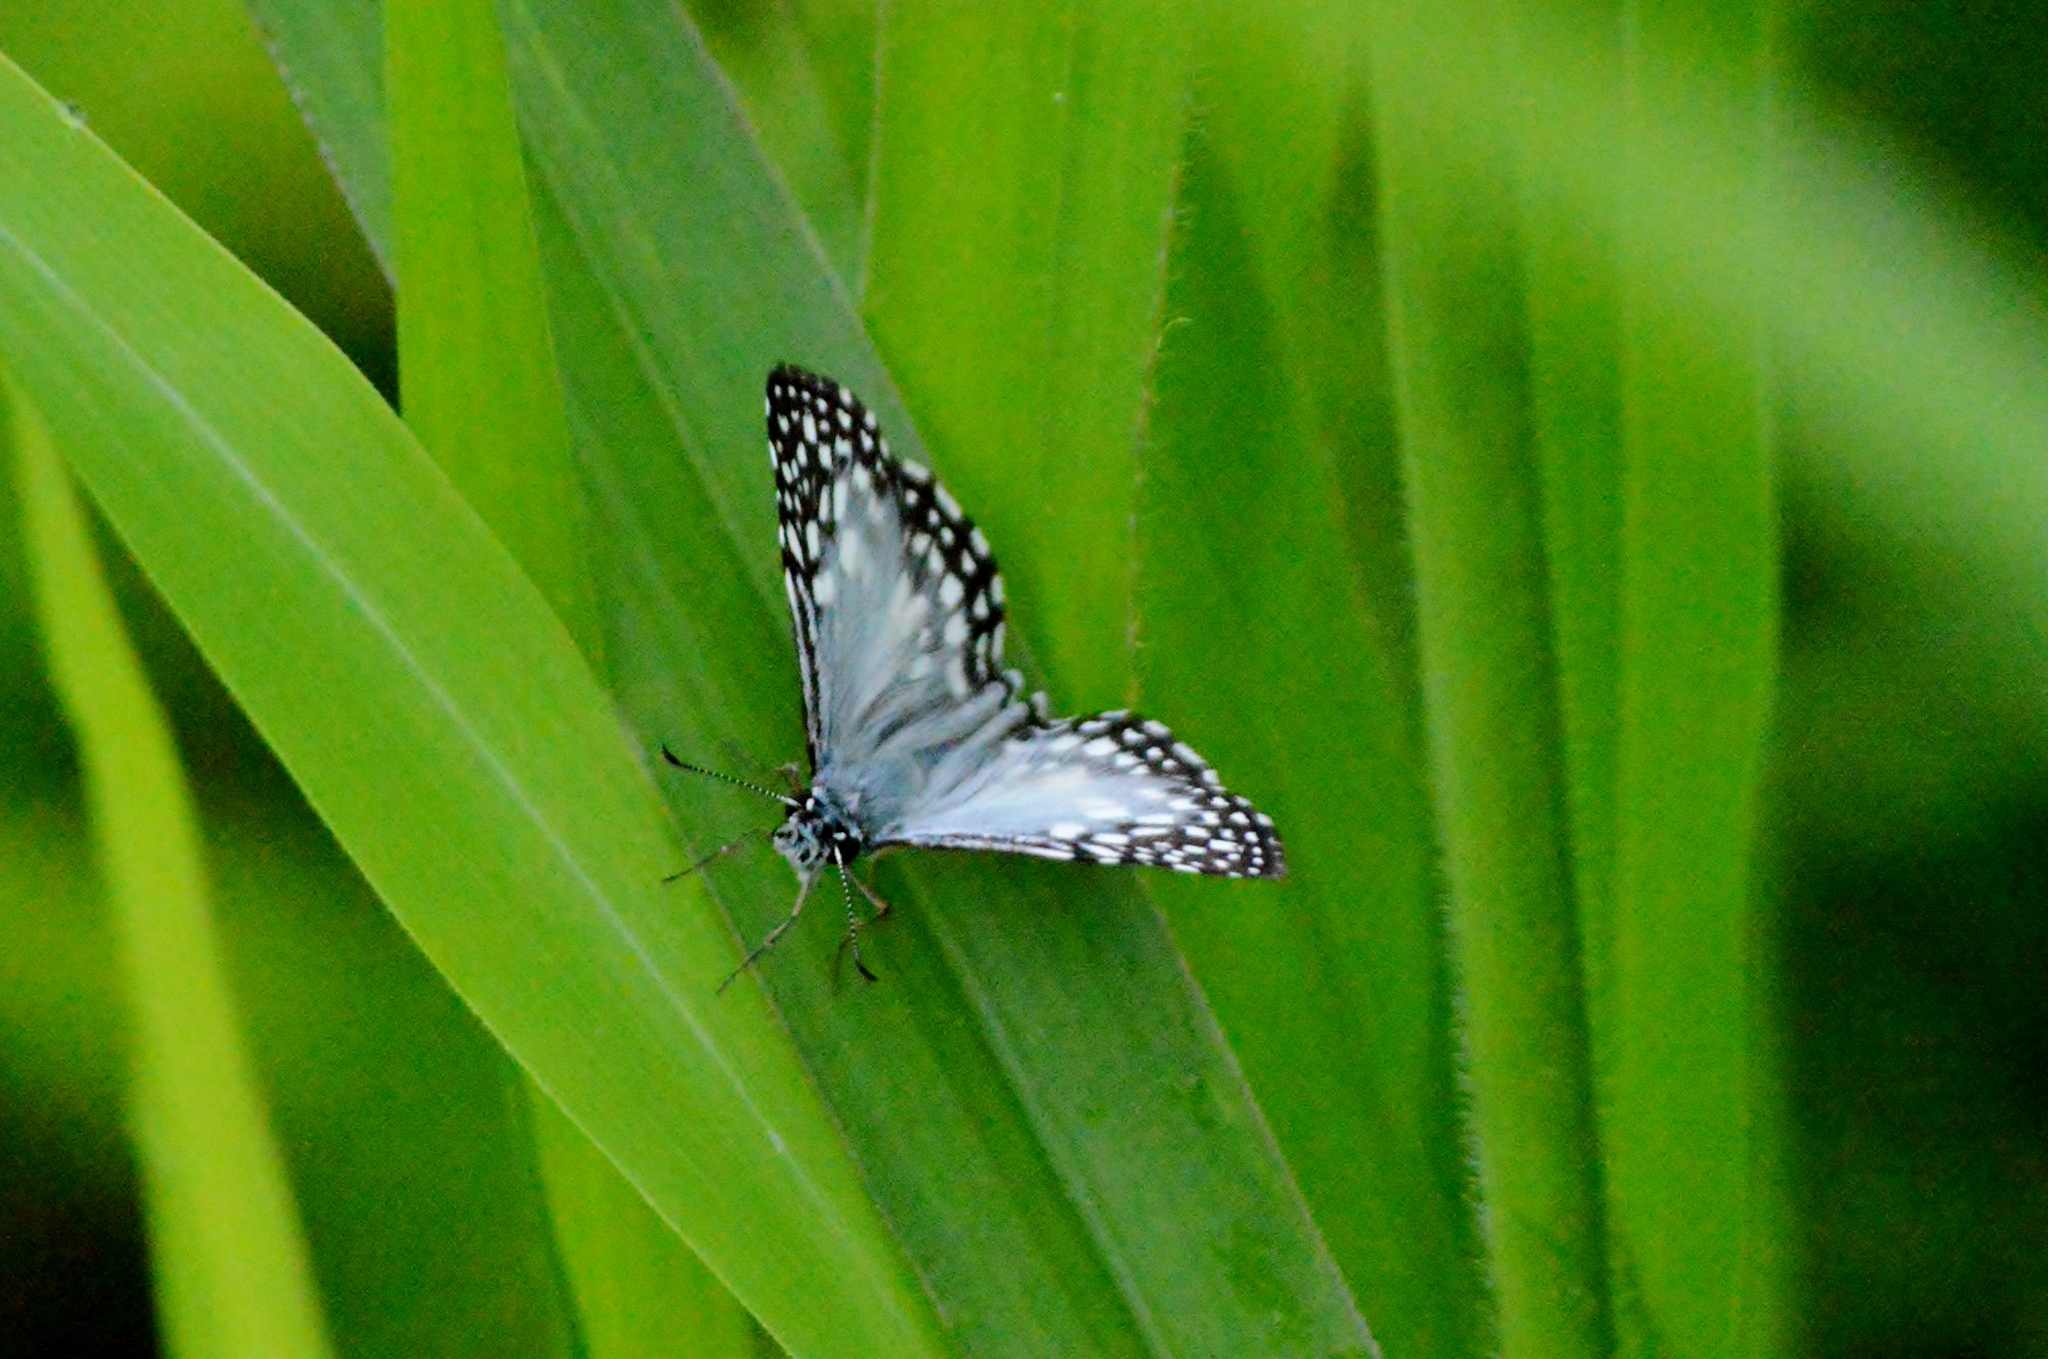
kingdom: Animalia
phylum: Arthropoda
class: Insecta
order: Lepidoptera
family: Hesperiidae
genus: Pyrgus
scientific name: Pyrgus oileus
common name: Tropical checkered-skipper
